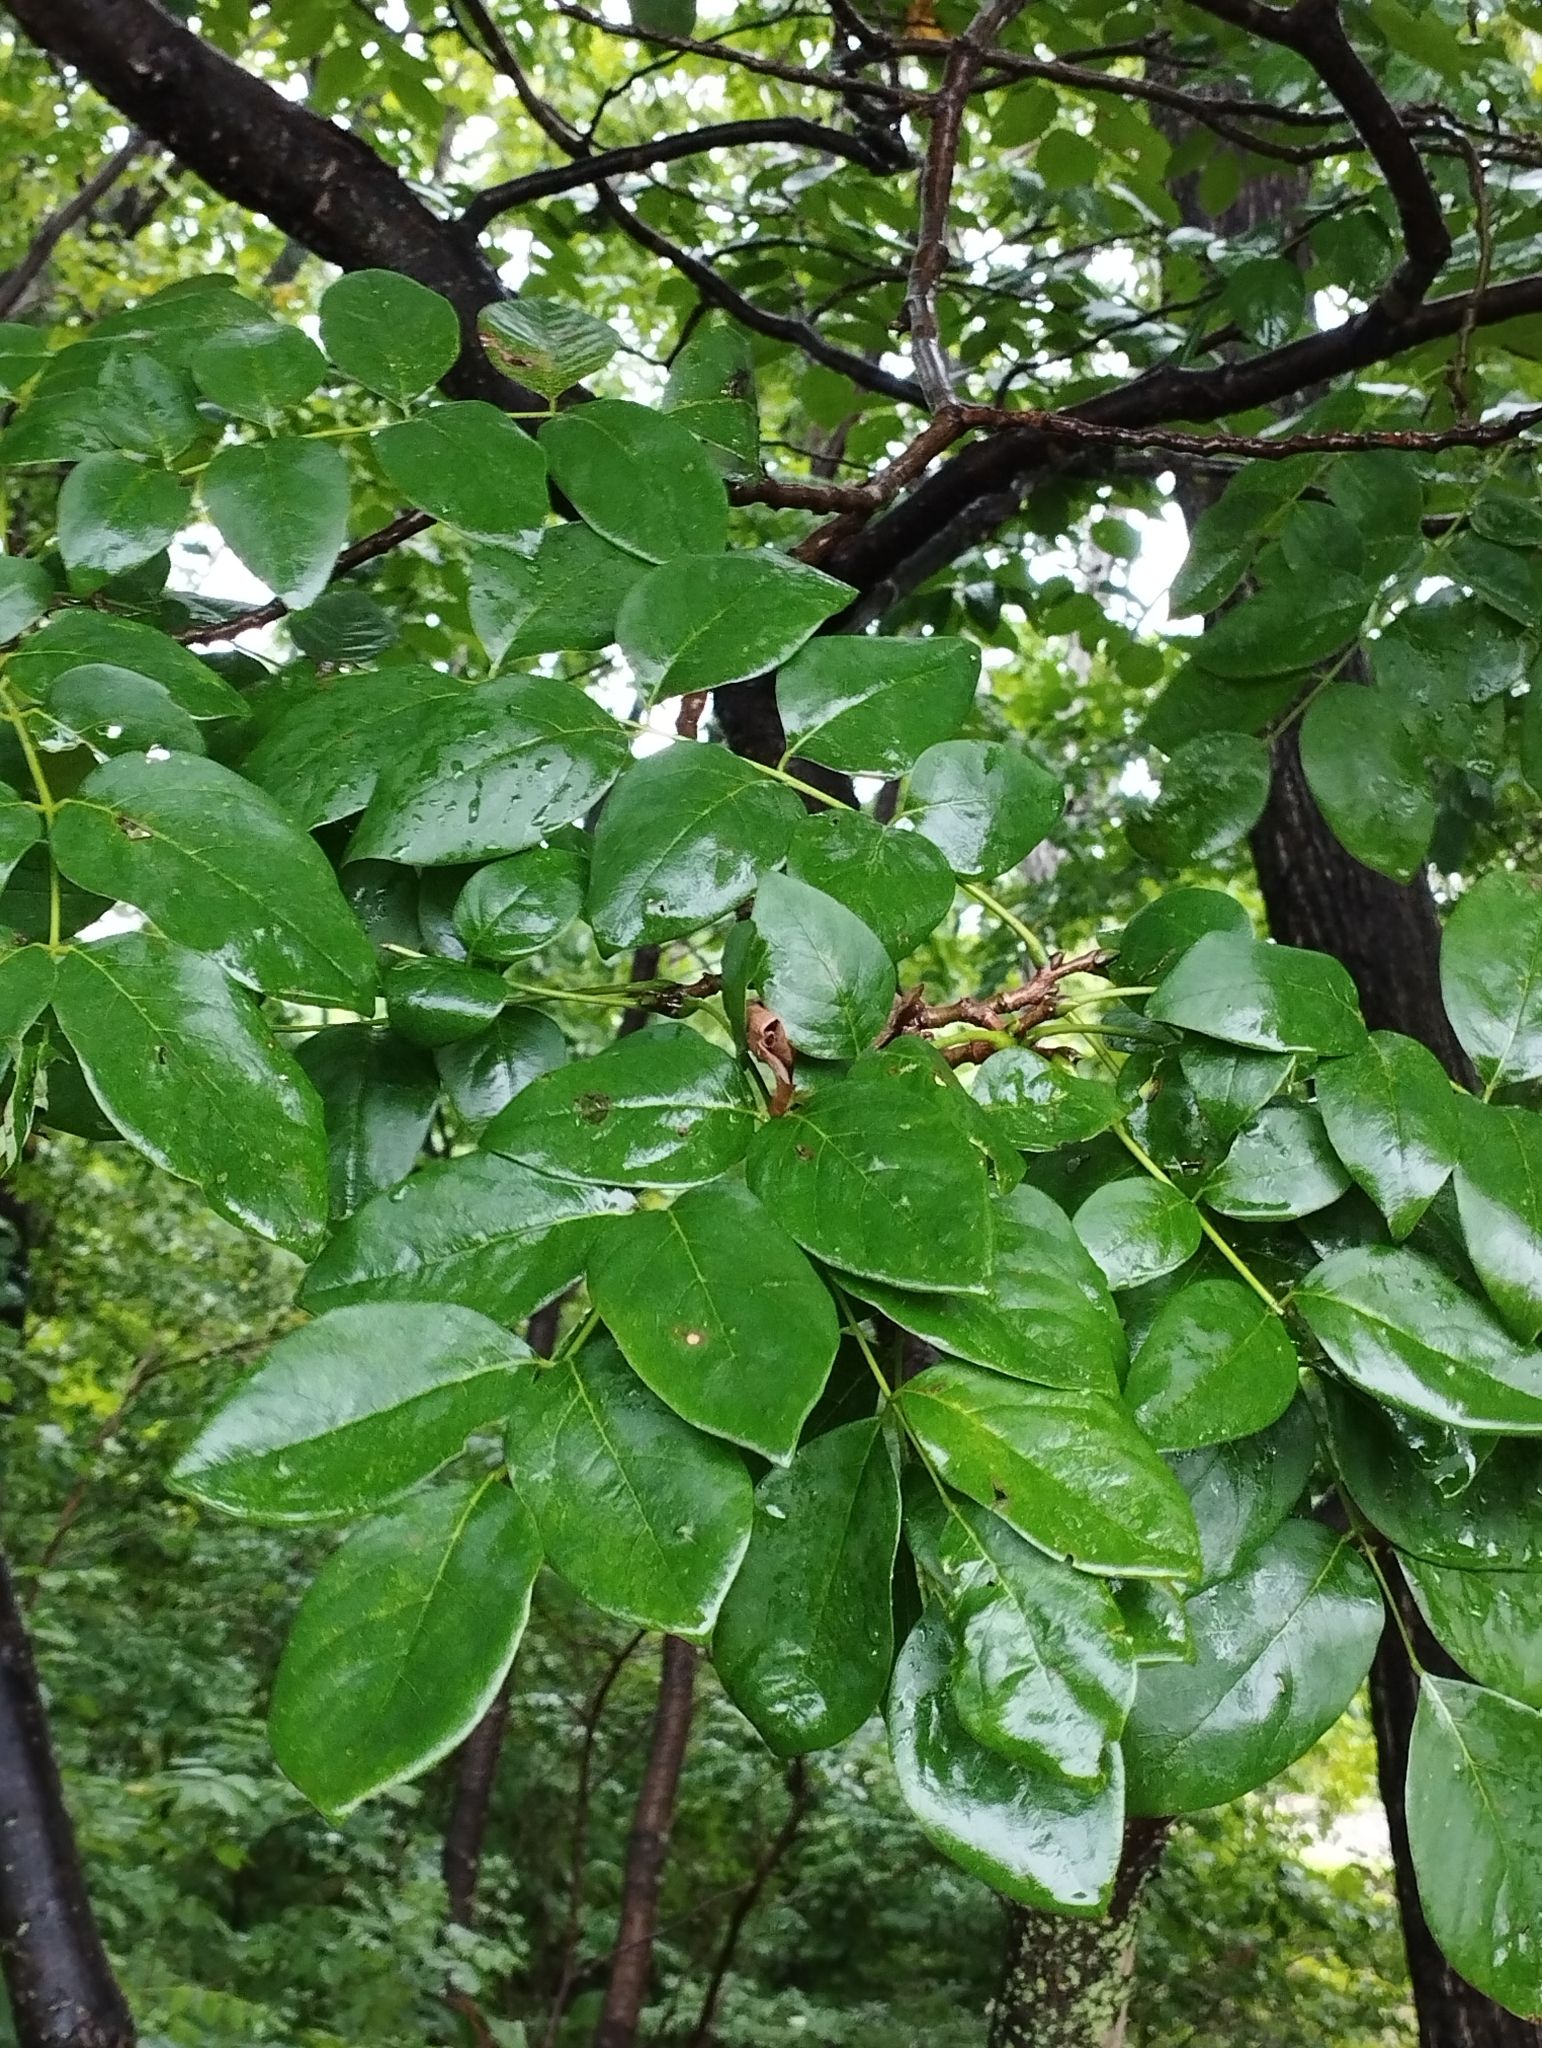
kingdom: Plantae
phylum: Tracheophyta
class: Magnoliopsida
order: Fabales
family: Fabaceae
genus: Maackia
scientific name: Maackia amurensis
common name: Amur maackia
